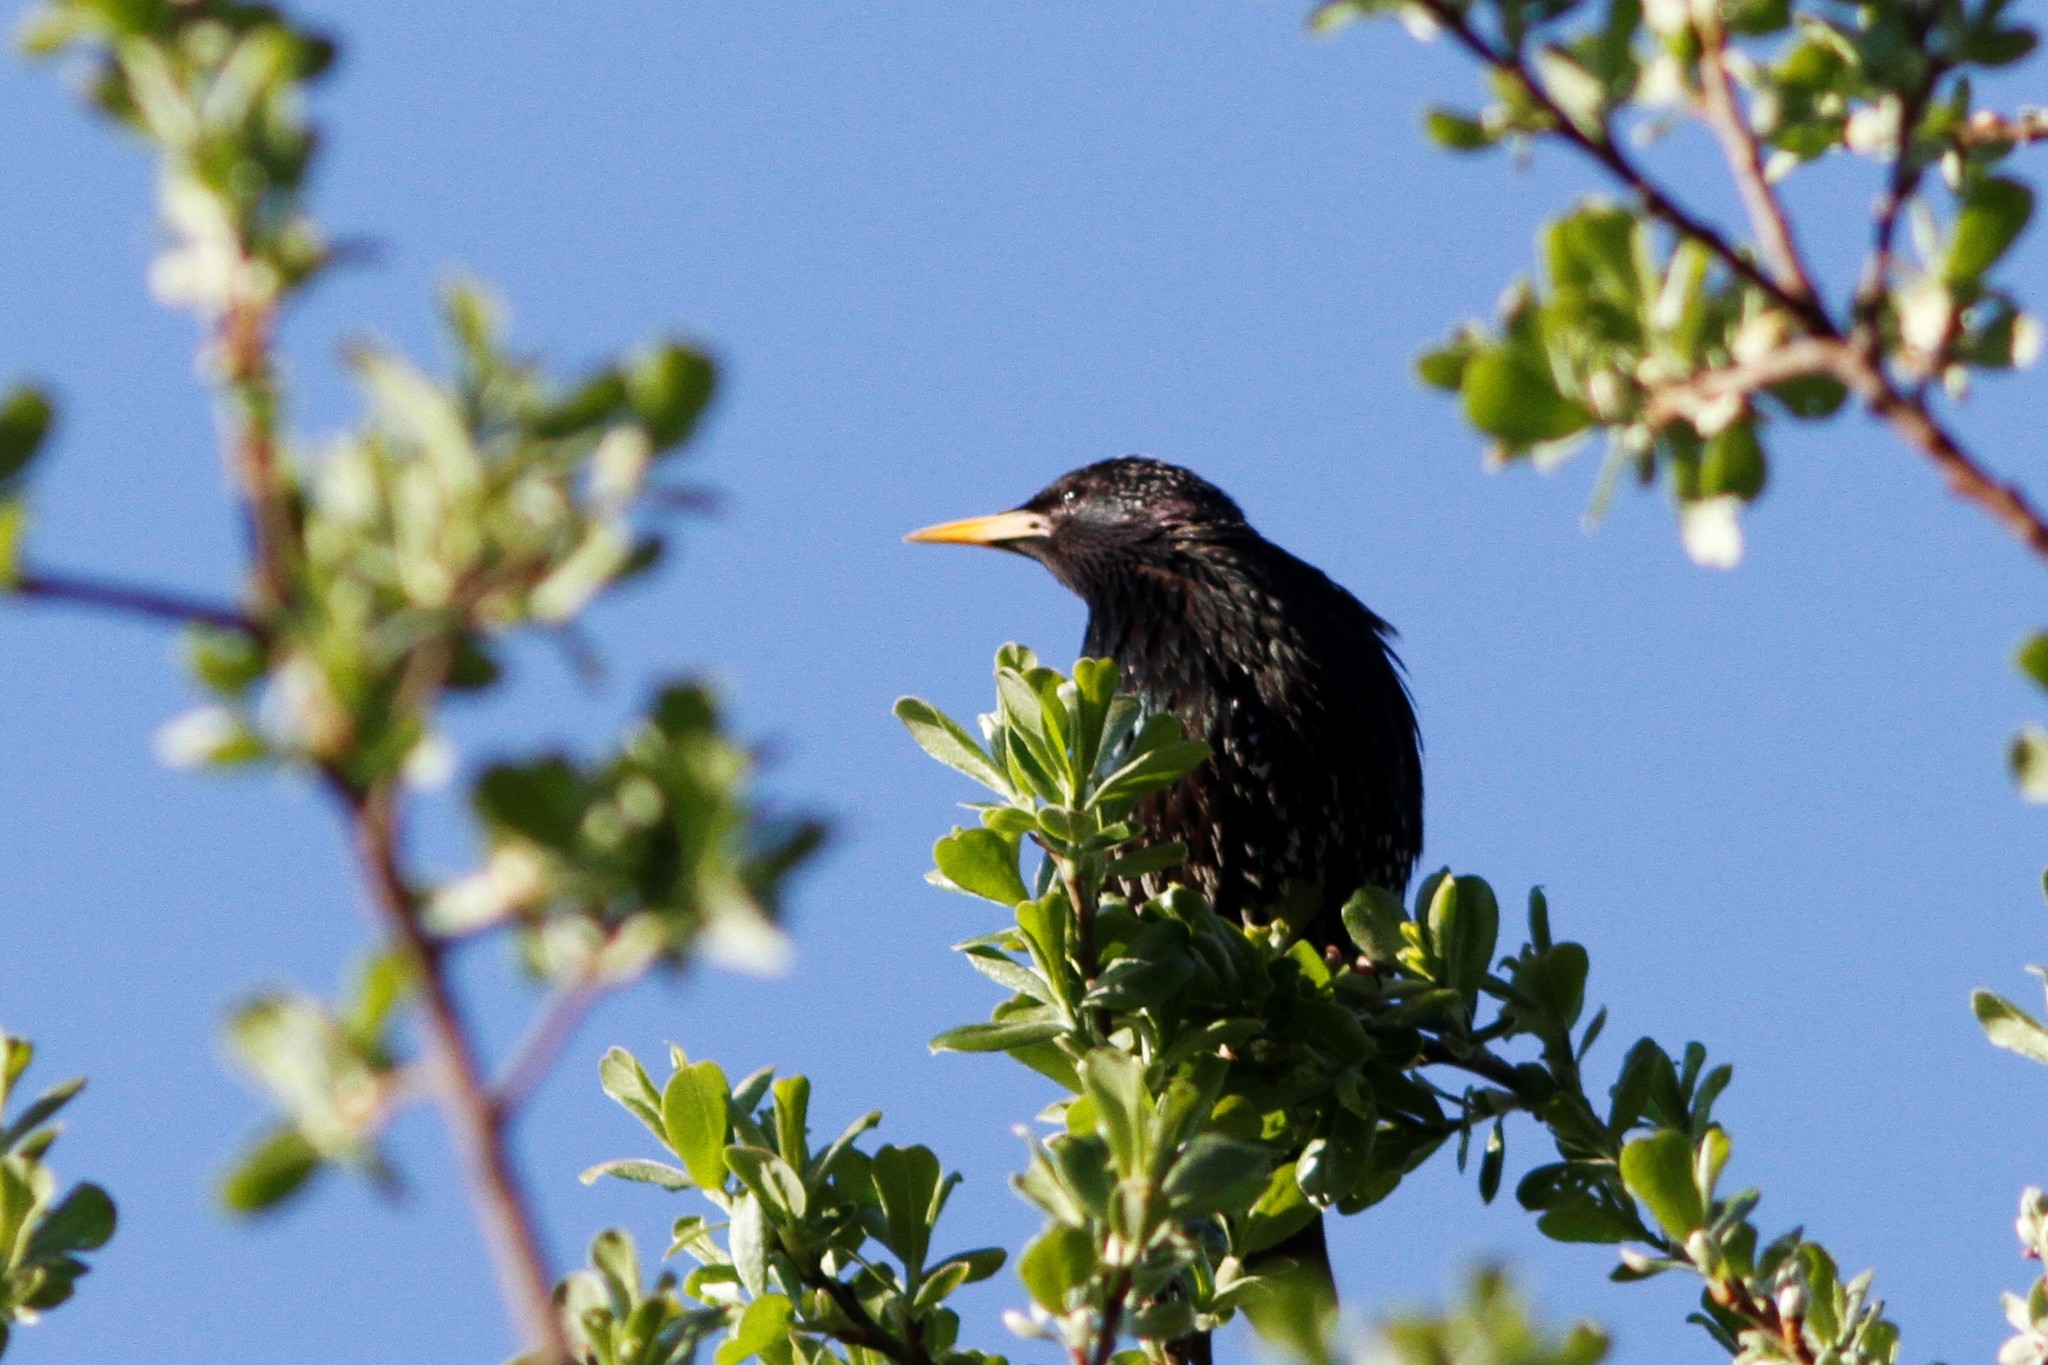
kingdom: Animalia
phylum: Chordata
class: Aves
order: Passeriformes
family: Sturnidae
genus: Sturnus
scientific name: Sturnus vulgaris
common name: Common starling
